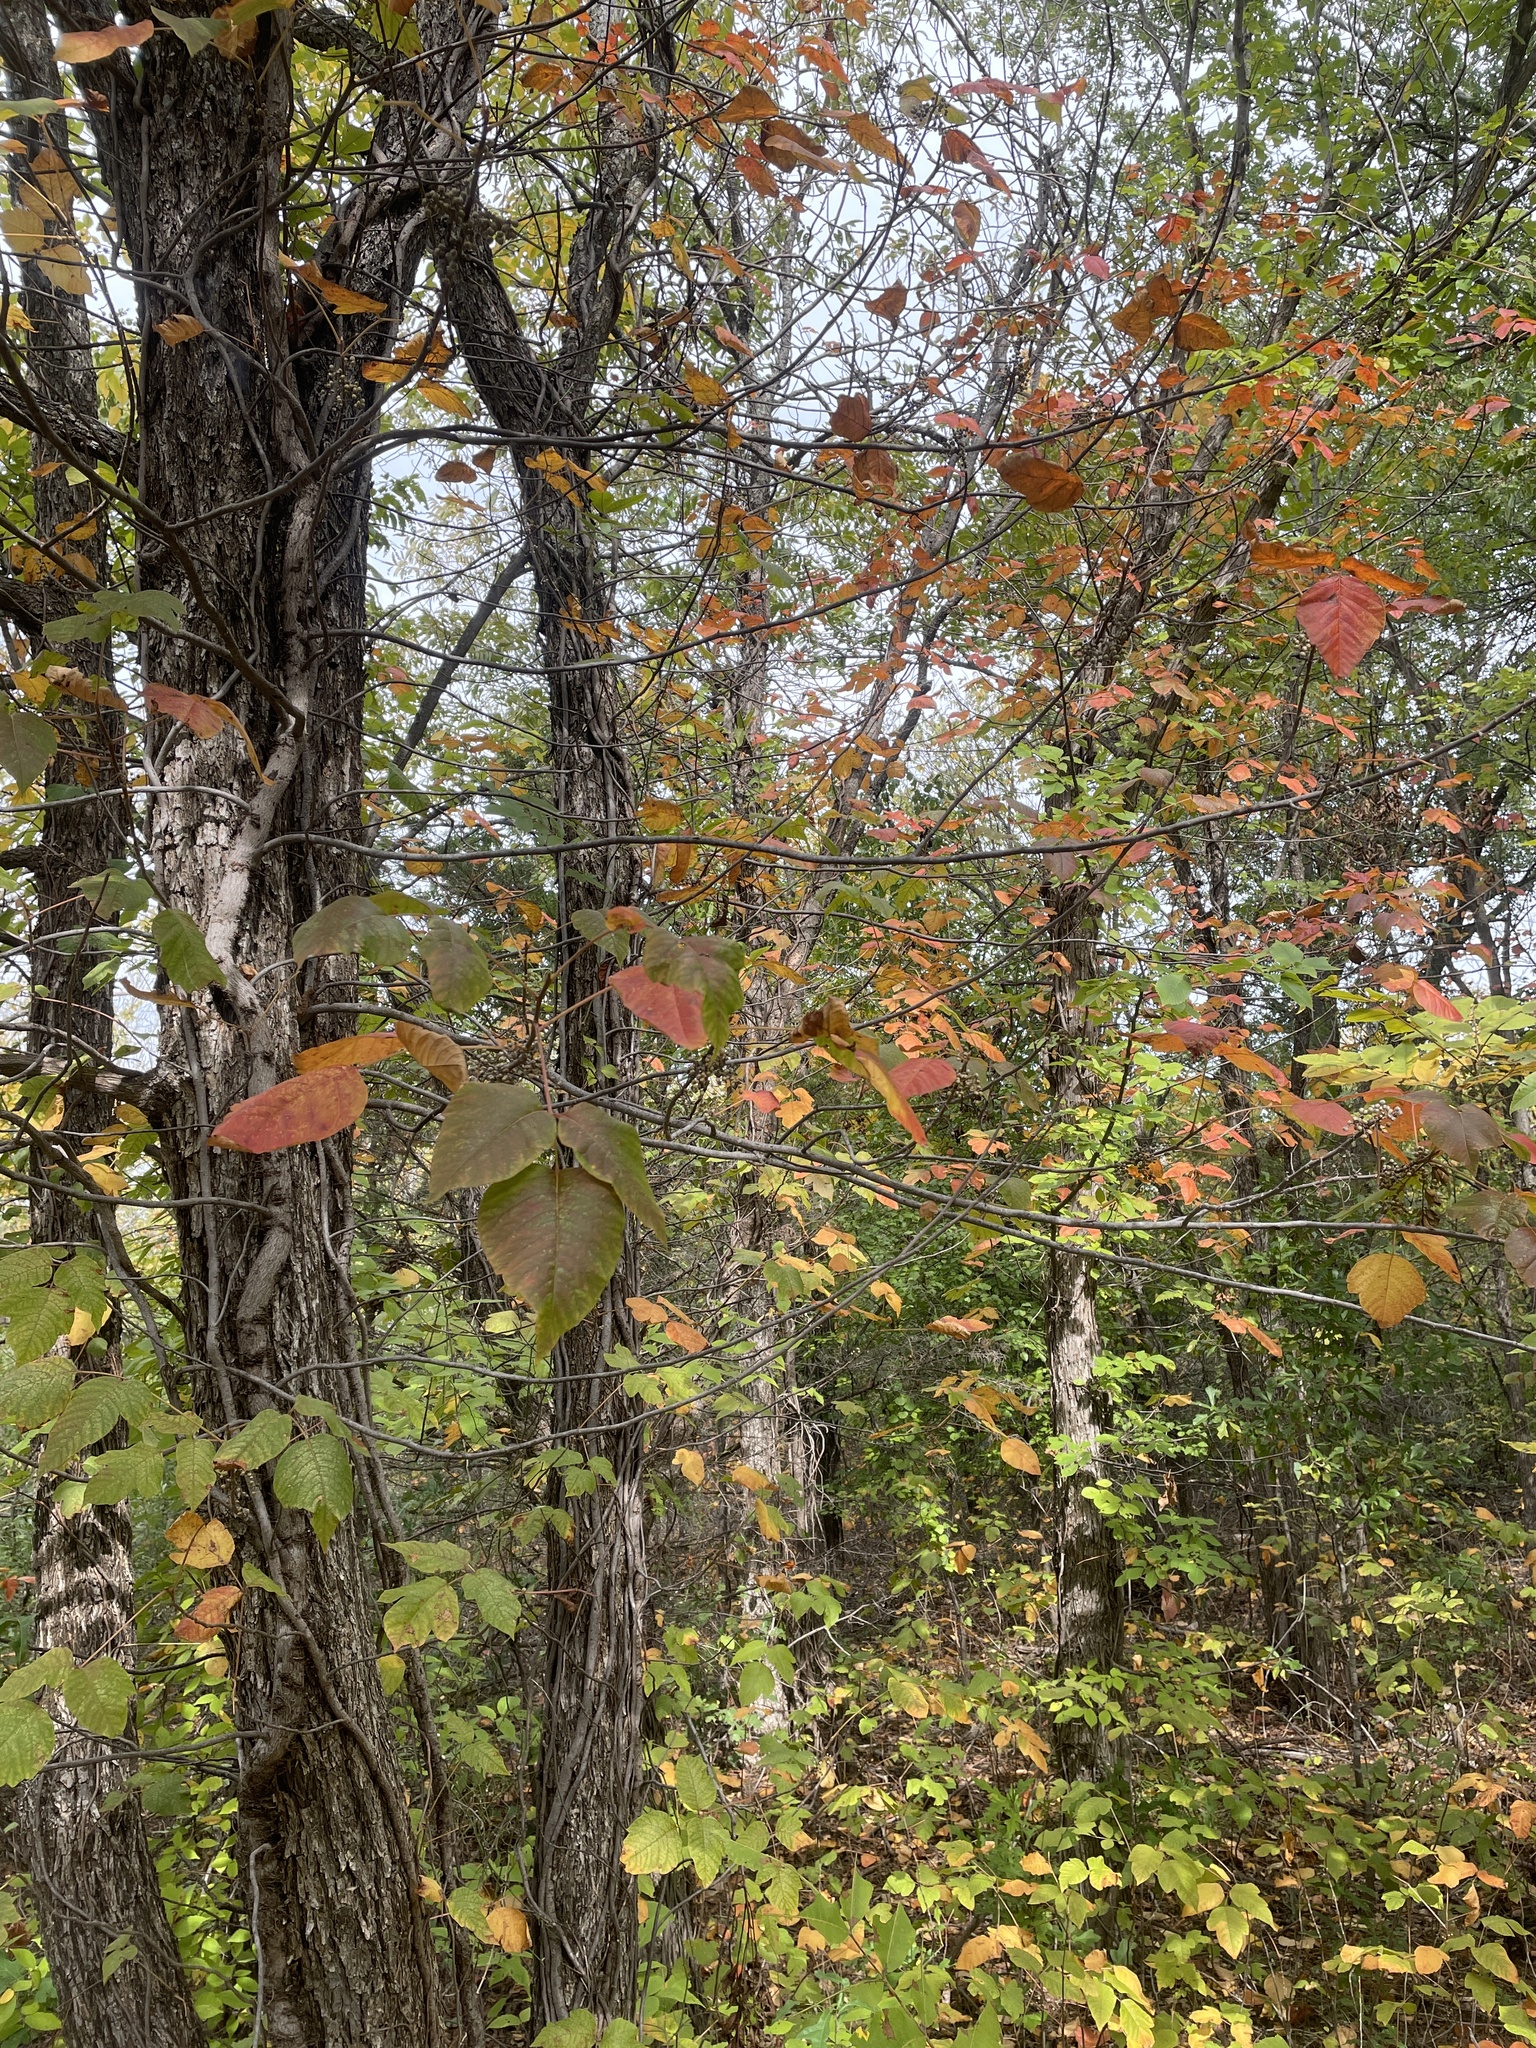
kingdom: Plantae
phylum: Tracheophyta
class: Magnoliopsida
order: Sapindales
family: Anacardiaceae
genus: Toxicodendron
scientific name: Toxicodendron radicans
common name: Poison ivy
